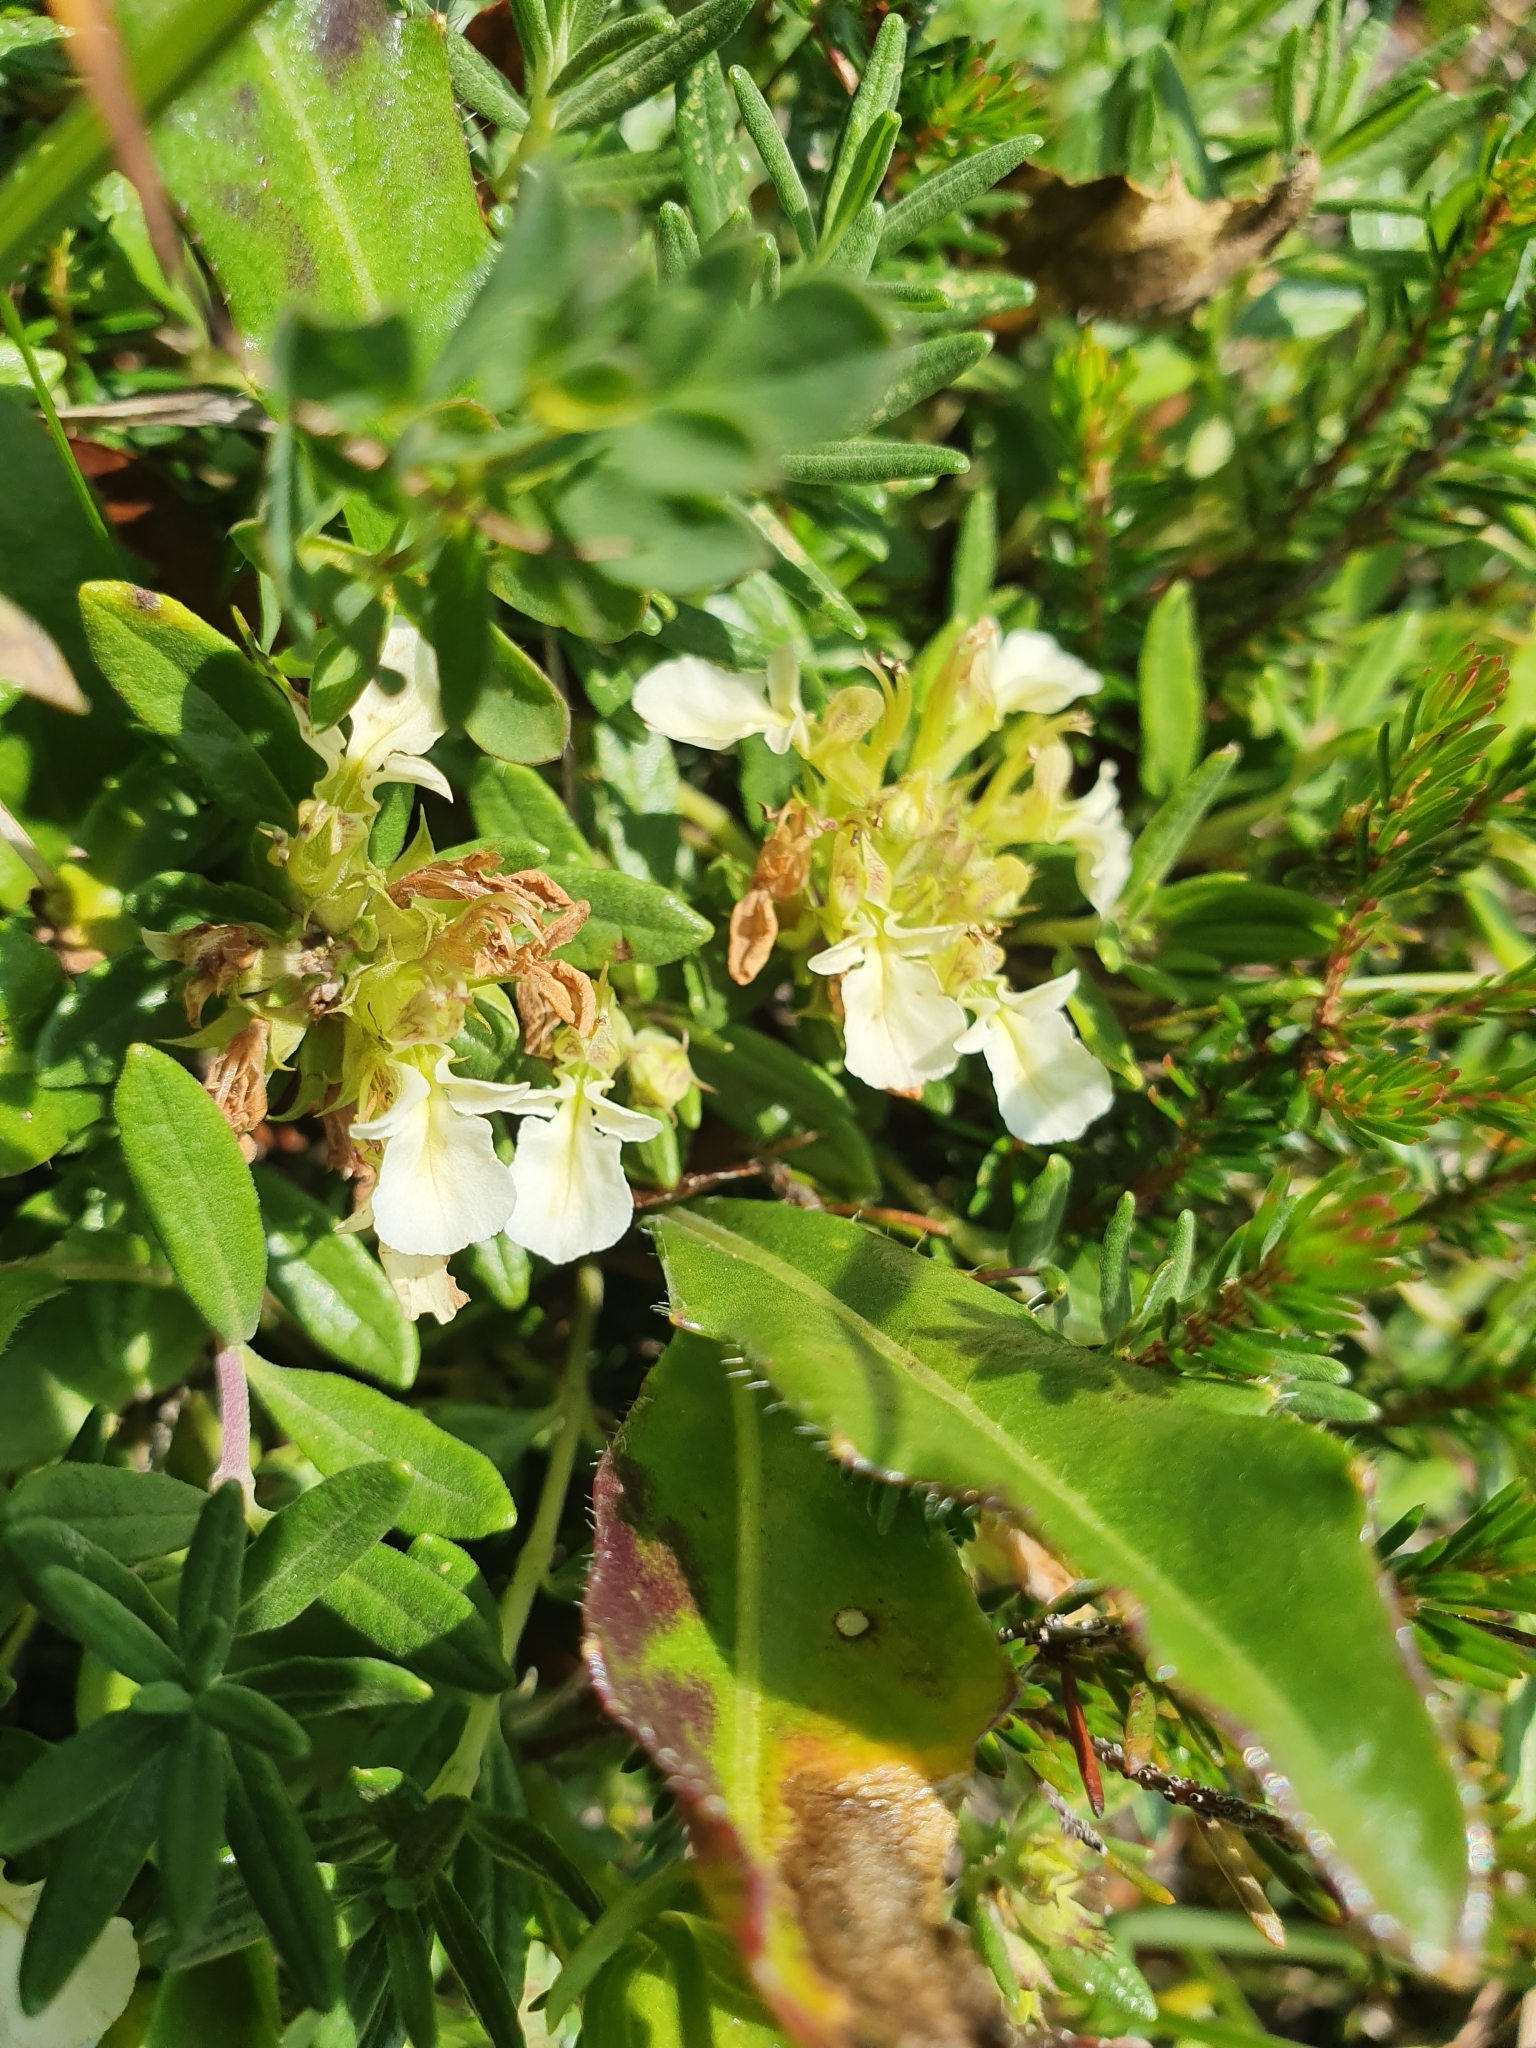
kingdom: Plantae
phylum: Tracheophyta
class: Magnoliopsida
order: Lamiales
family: Lamiaceae
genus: Teucrium
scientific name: Teucrium montanum
